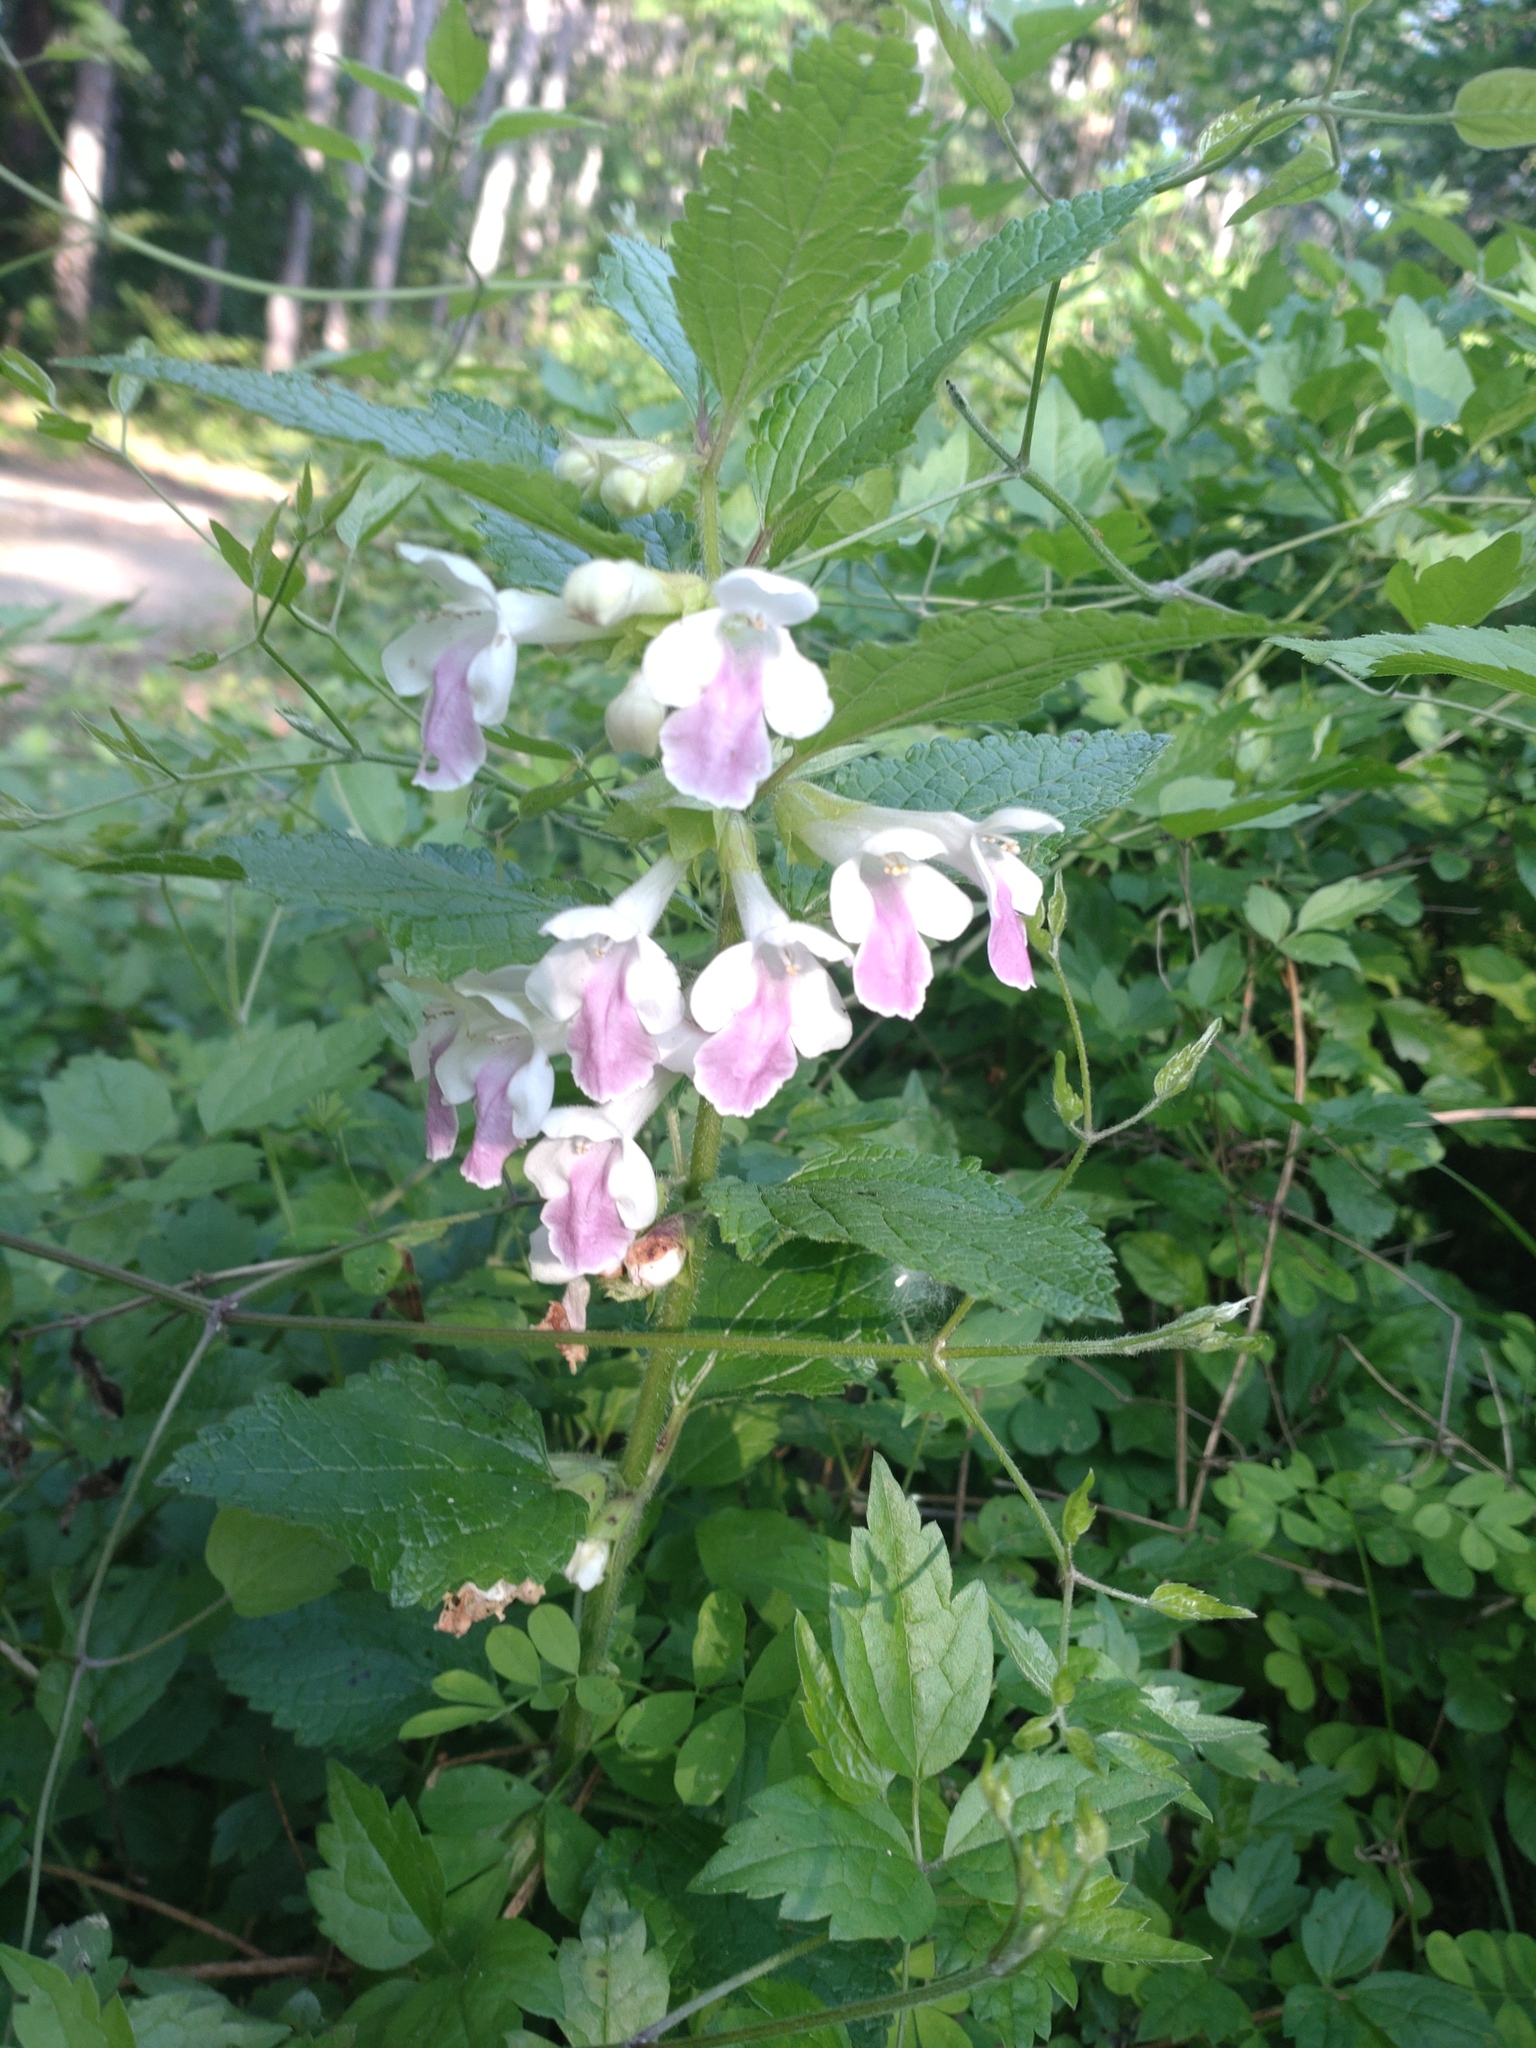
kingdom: Plantae
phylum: Tracheophyta
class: Magnoliopsida
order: Lamiales
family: Lamiaceae
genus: Melittis
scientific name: Melittis melissophyllum
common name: Bastard balm
